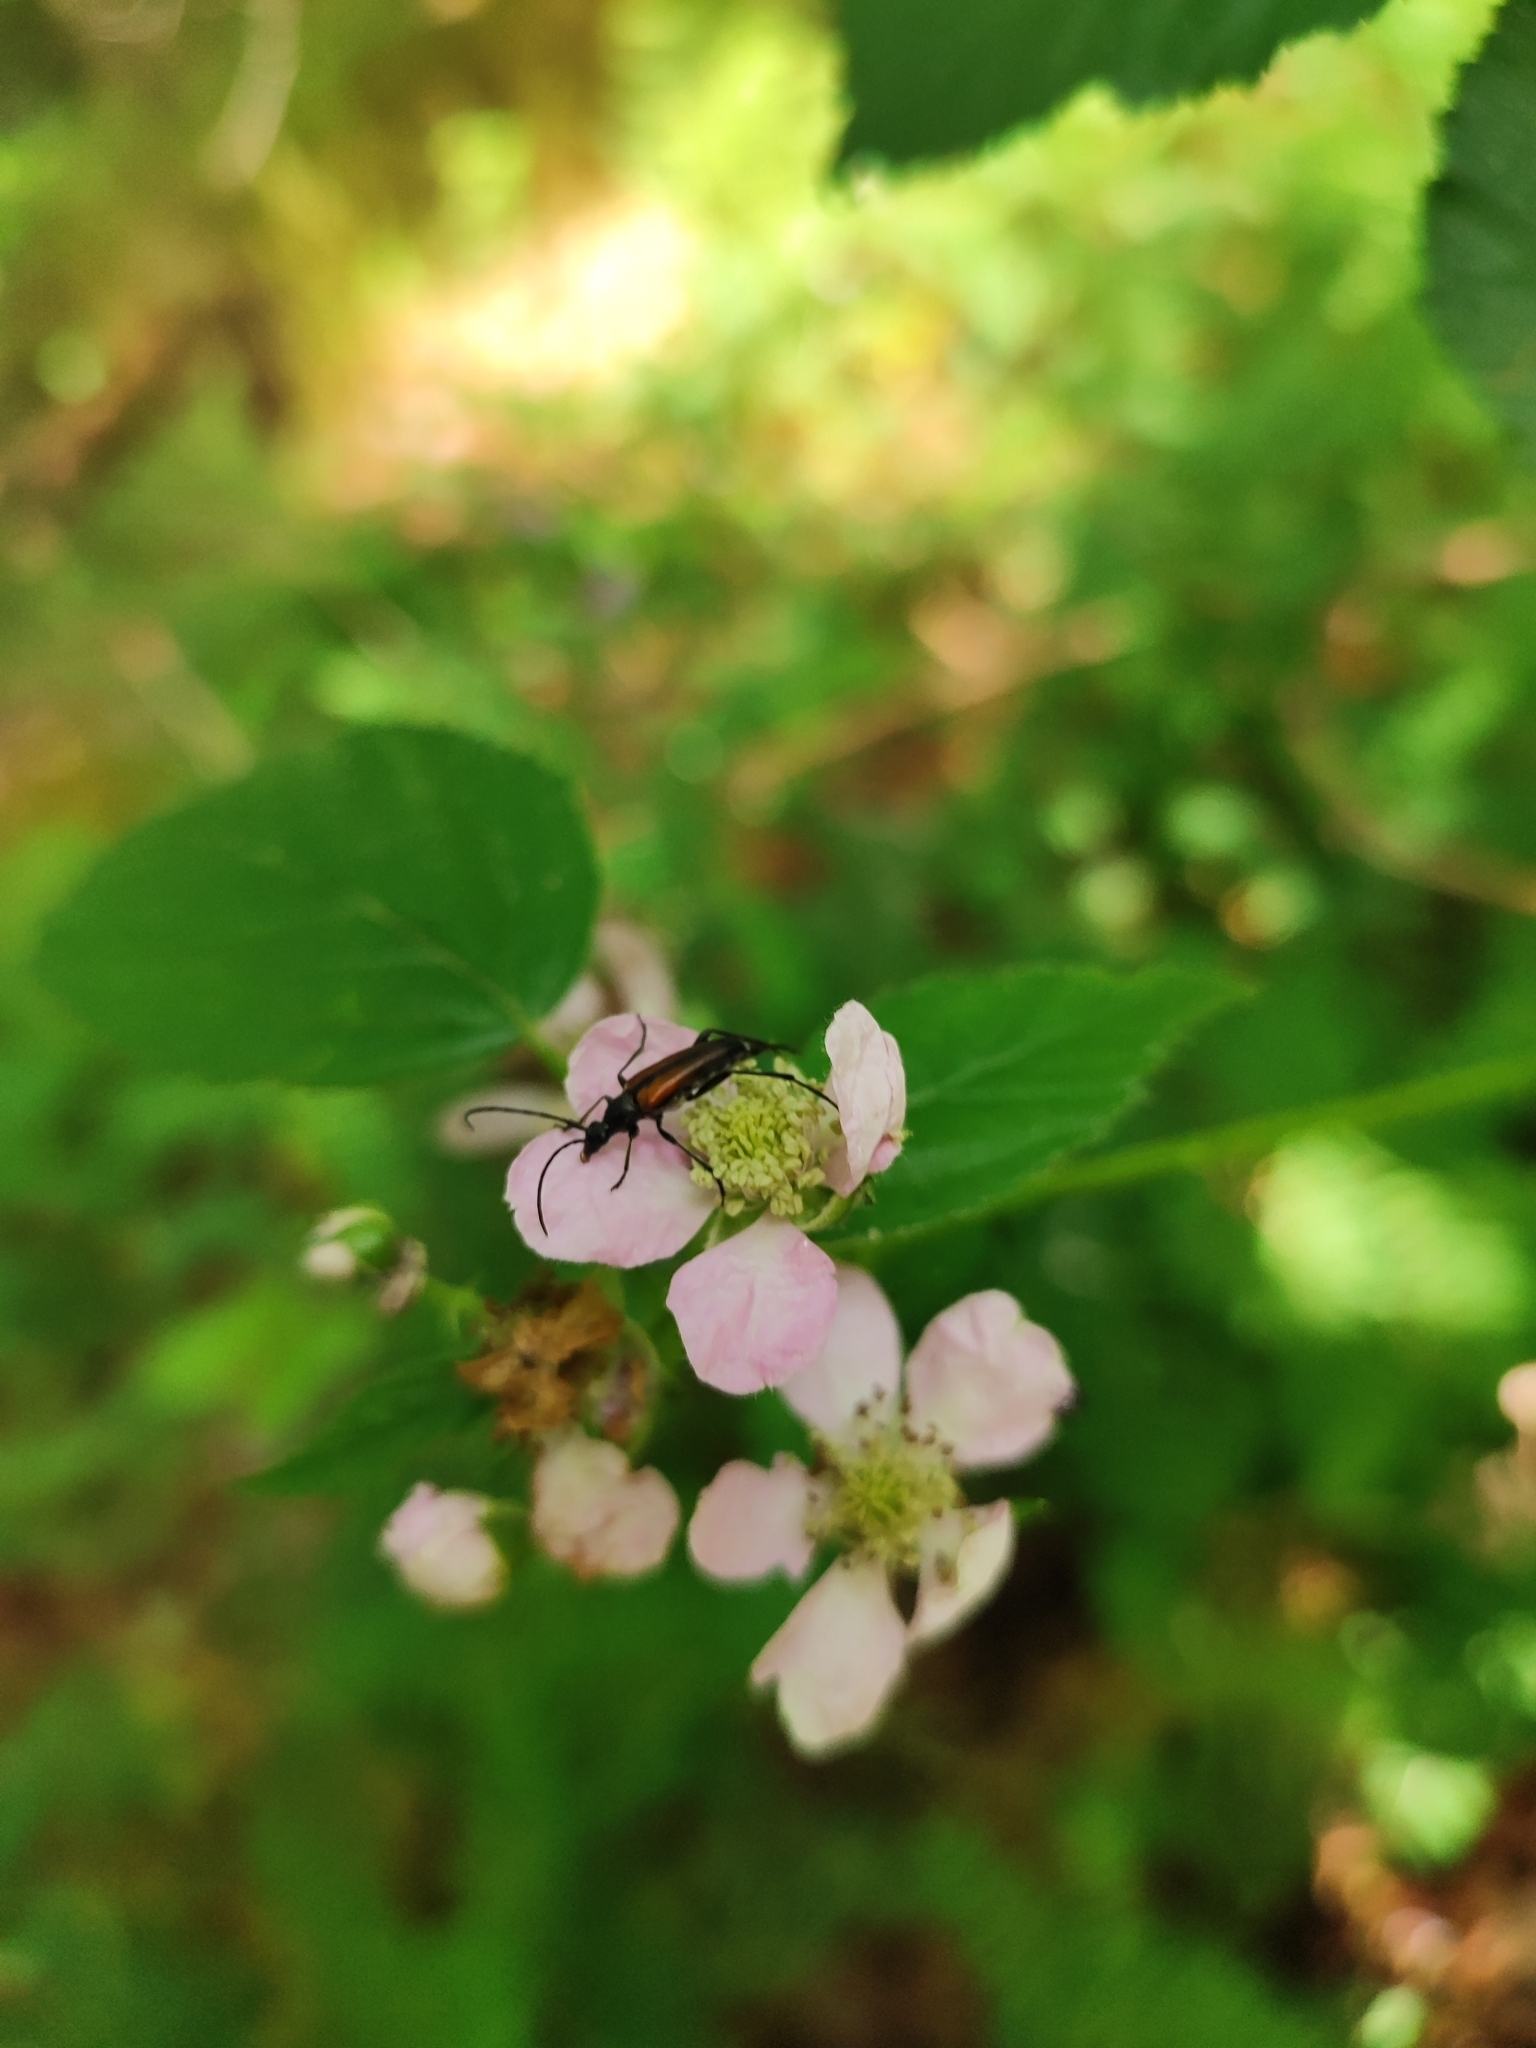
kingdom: Animalia
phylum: Arthropoda
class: Insecta
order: Coleoptera
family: Cerambycidae
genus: Stenurella
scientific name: Stenurella melanura
